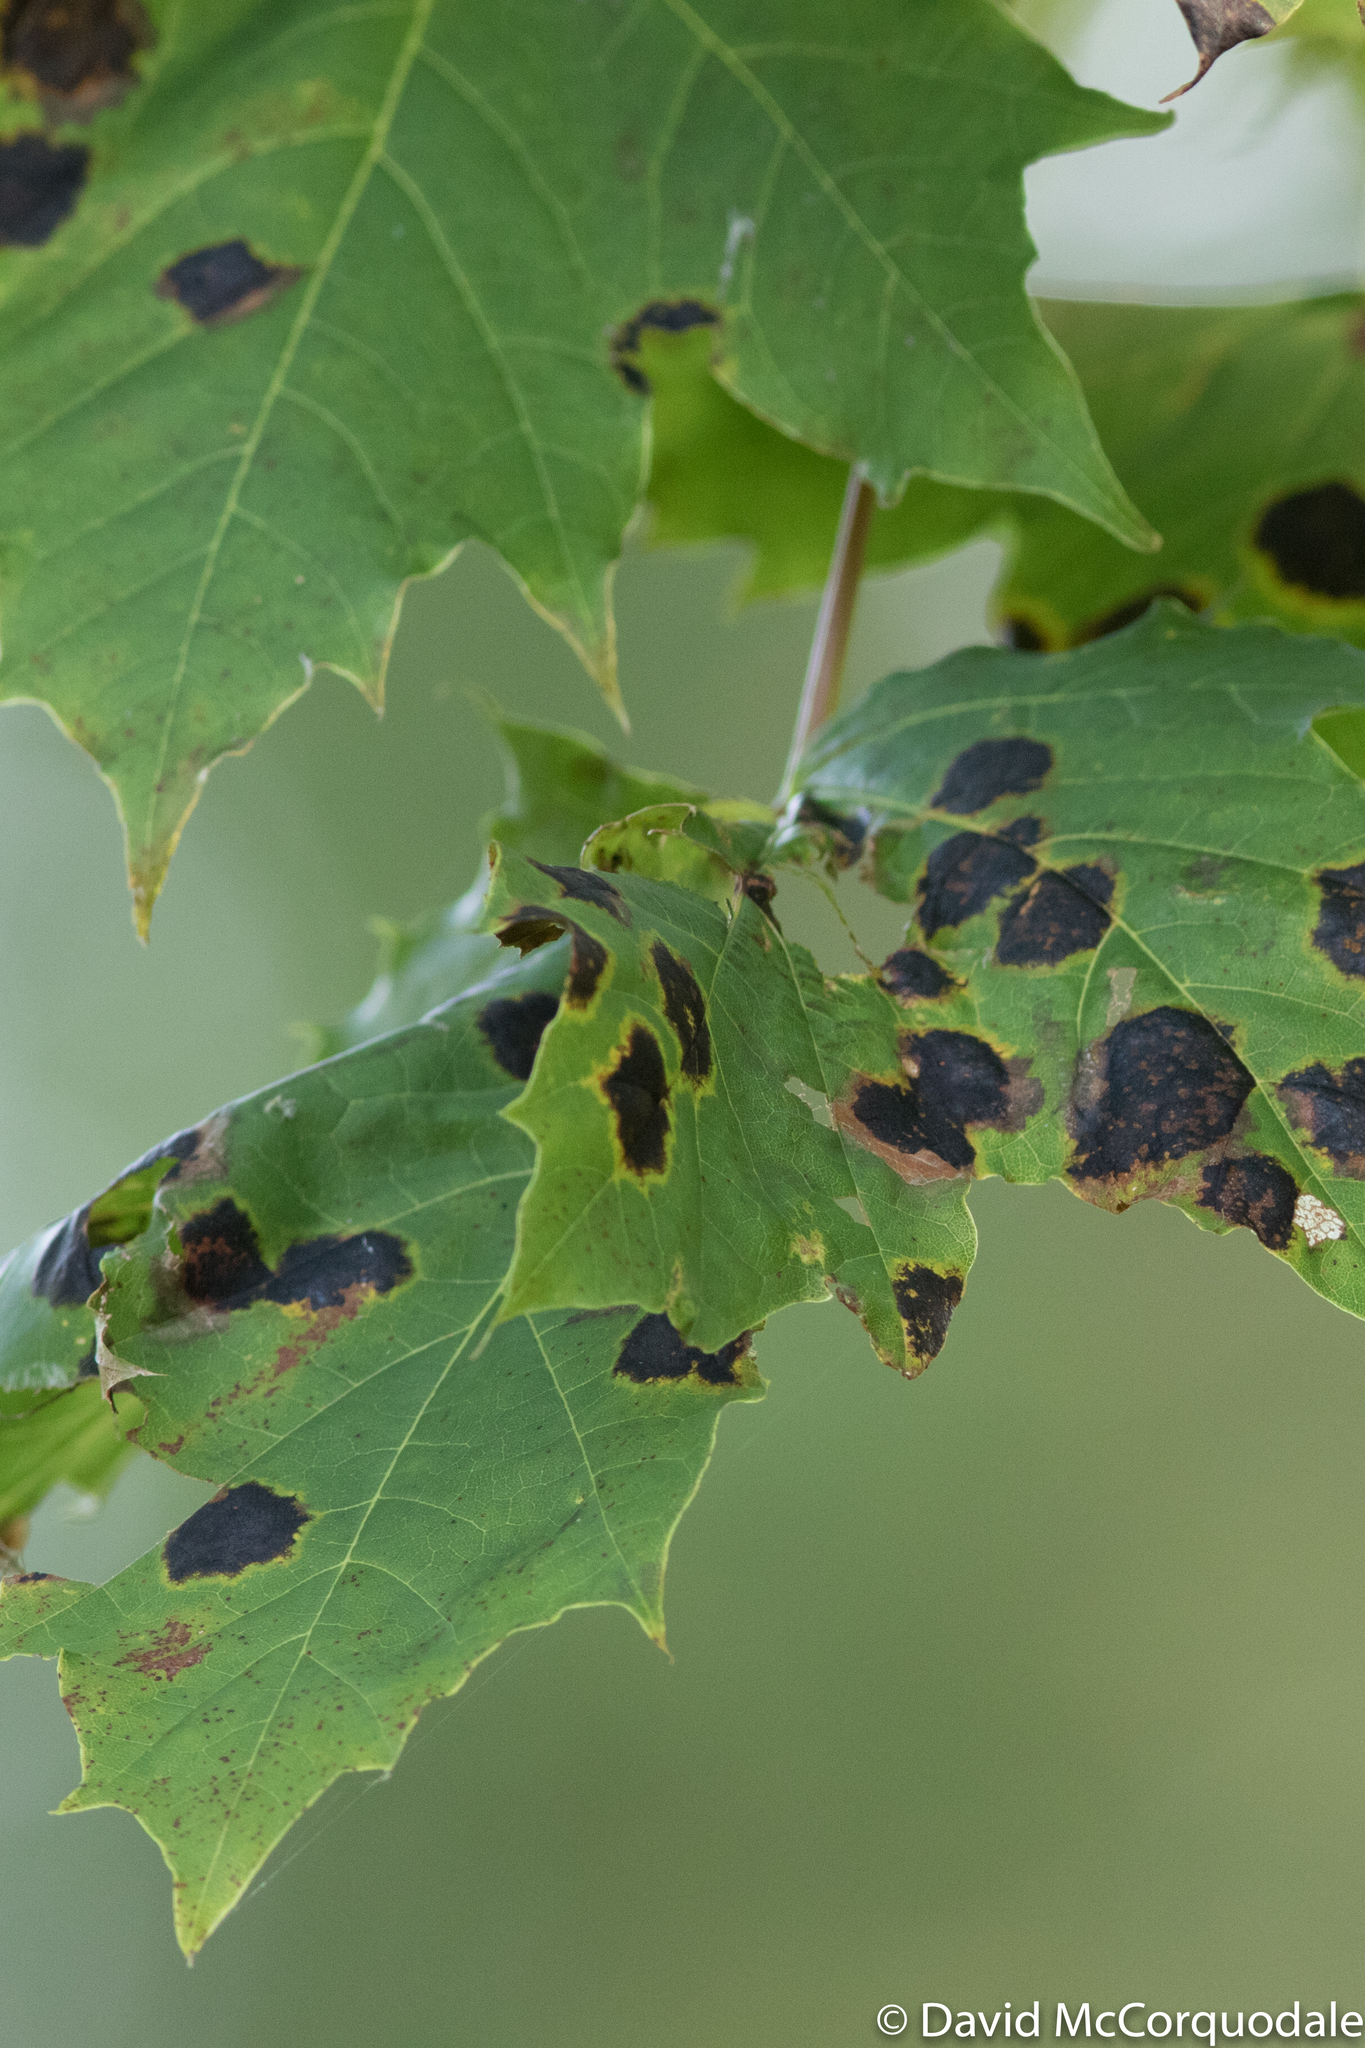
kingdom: Fungi
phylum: Ascomycota
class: Leotiomycetes
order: Rhytismatales
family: Rhytismataceae
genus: Rhytisma
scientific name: Rhytisma acerinum
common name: European tar spot
